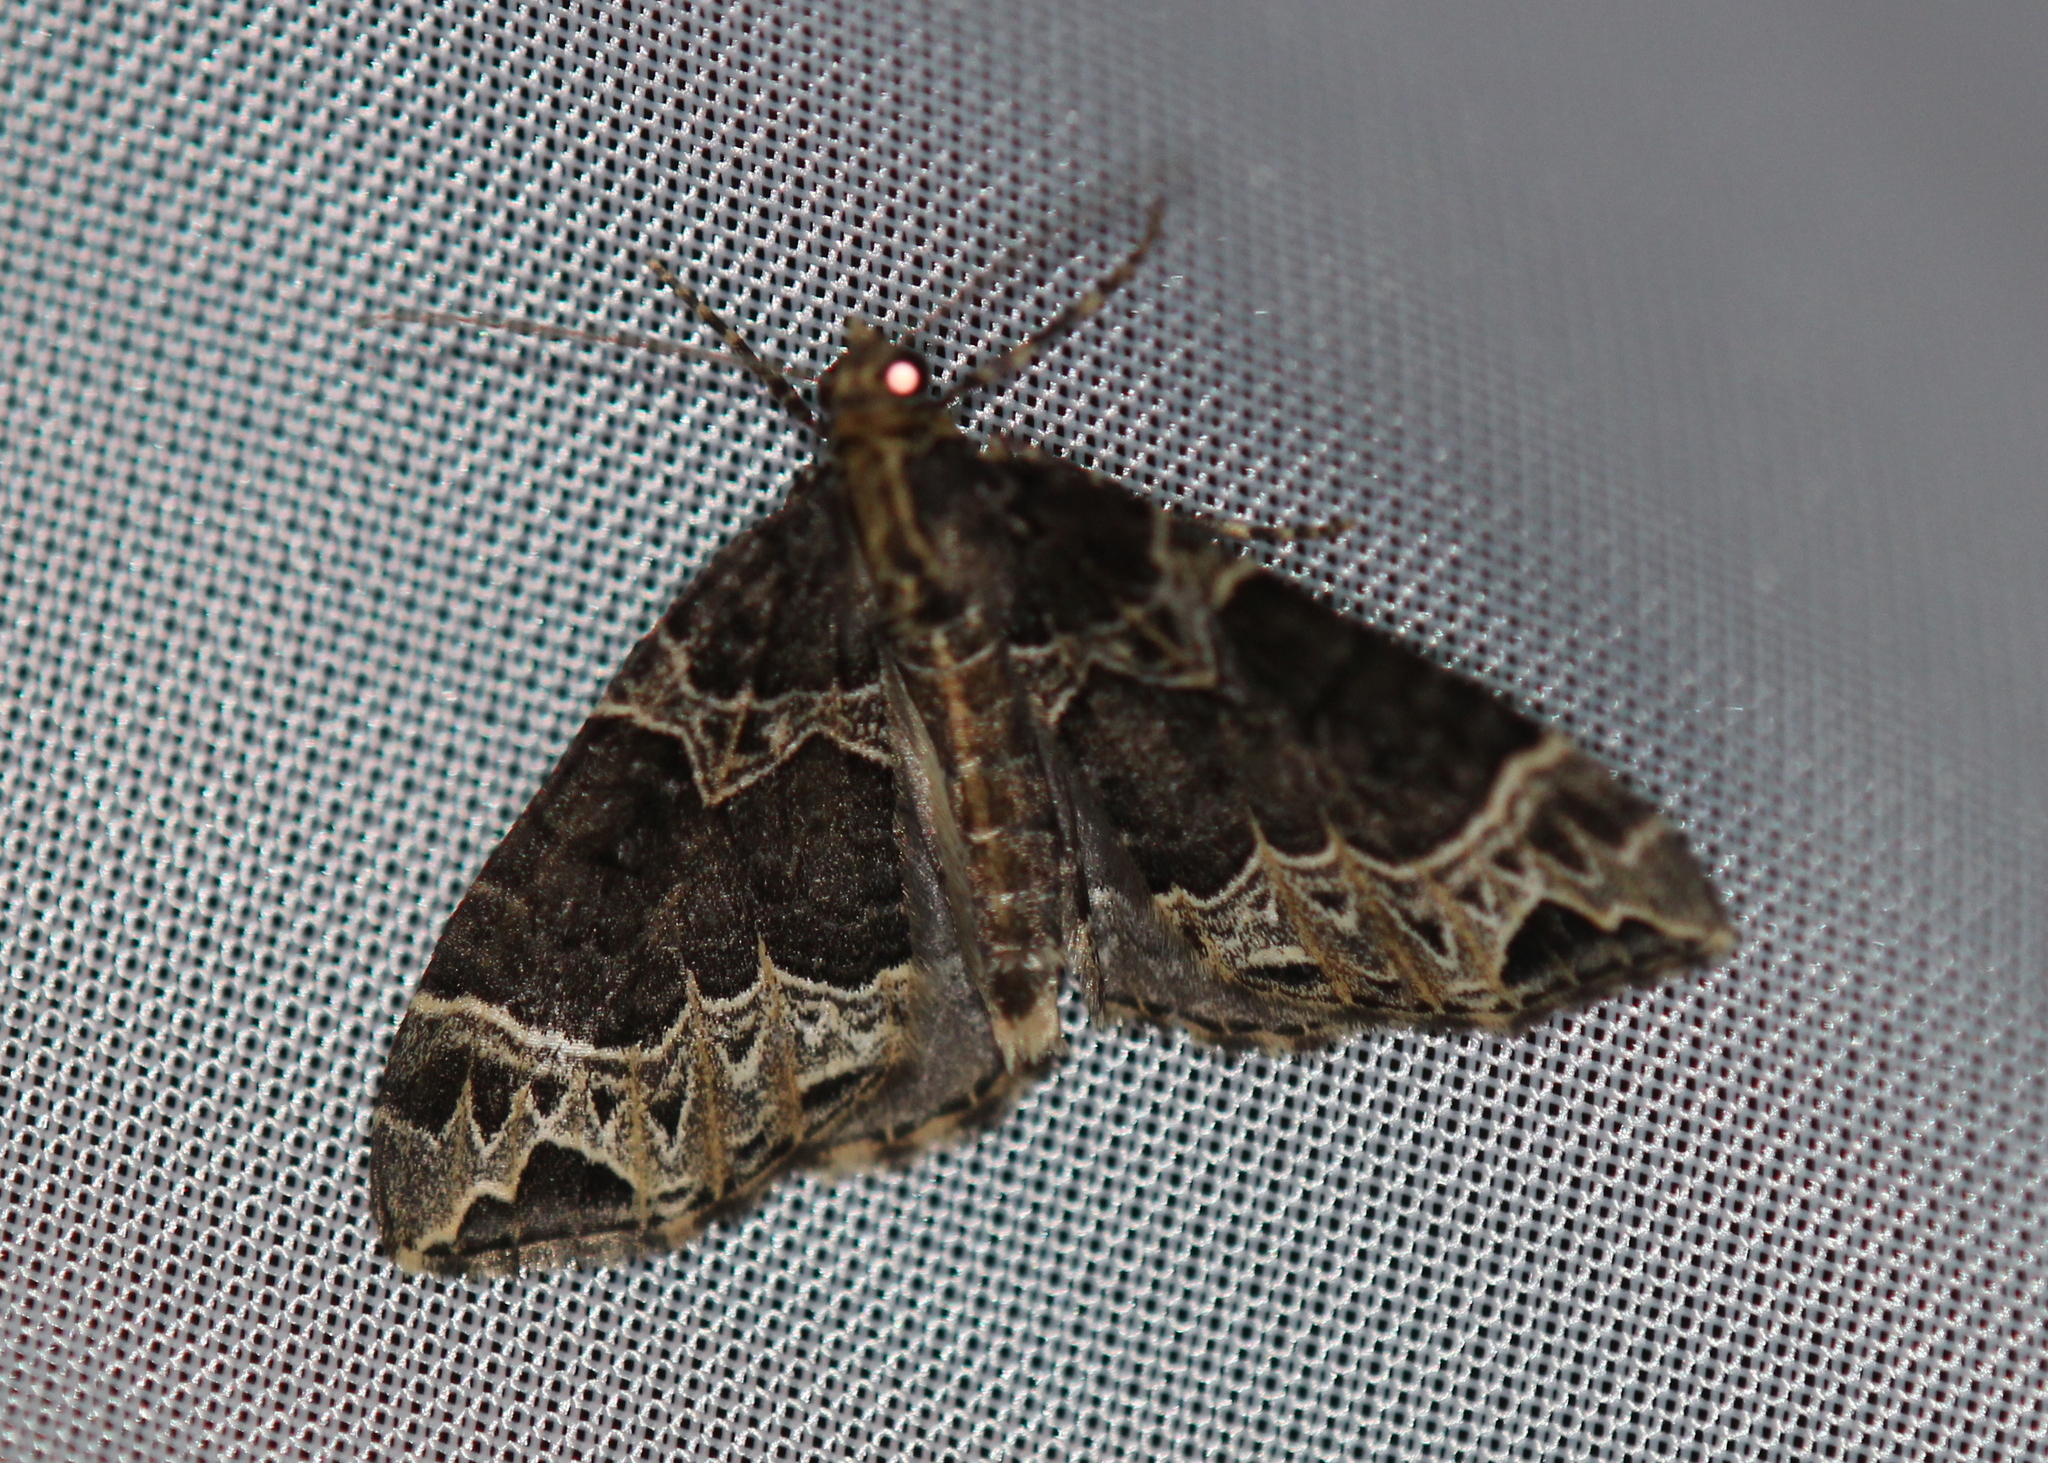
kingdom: Animalia
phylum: Arthropoda
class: Insecta
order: Lepidoptera
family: Geometridae
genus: Ecliptopera
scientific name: Ecliptopera silaceata
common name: Small phoenix
